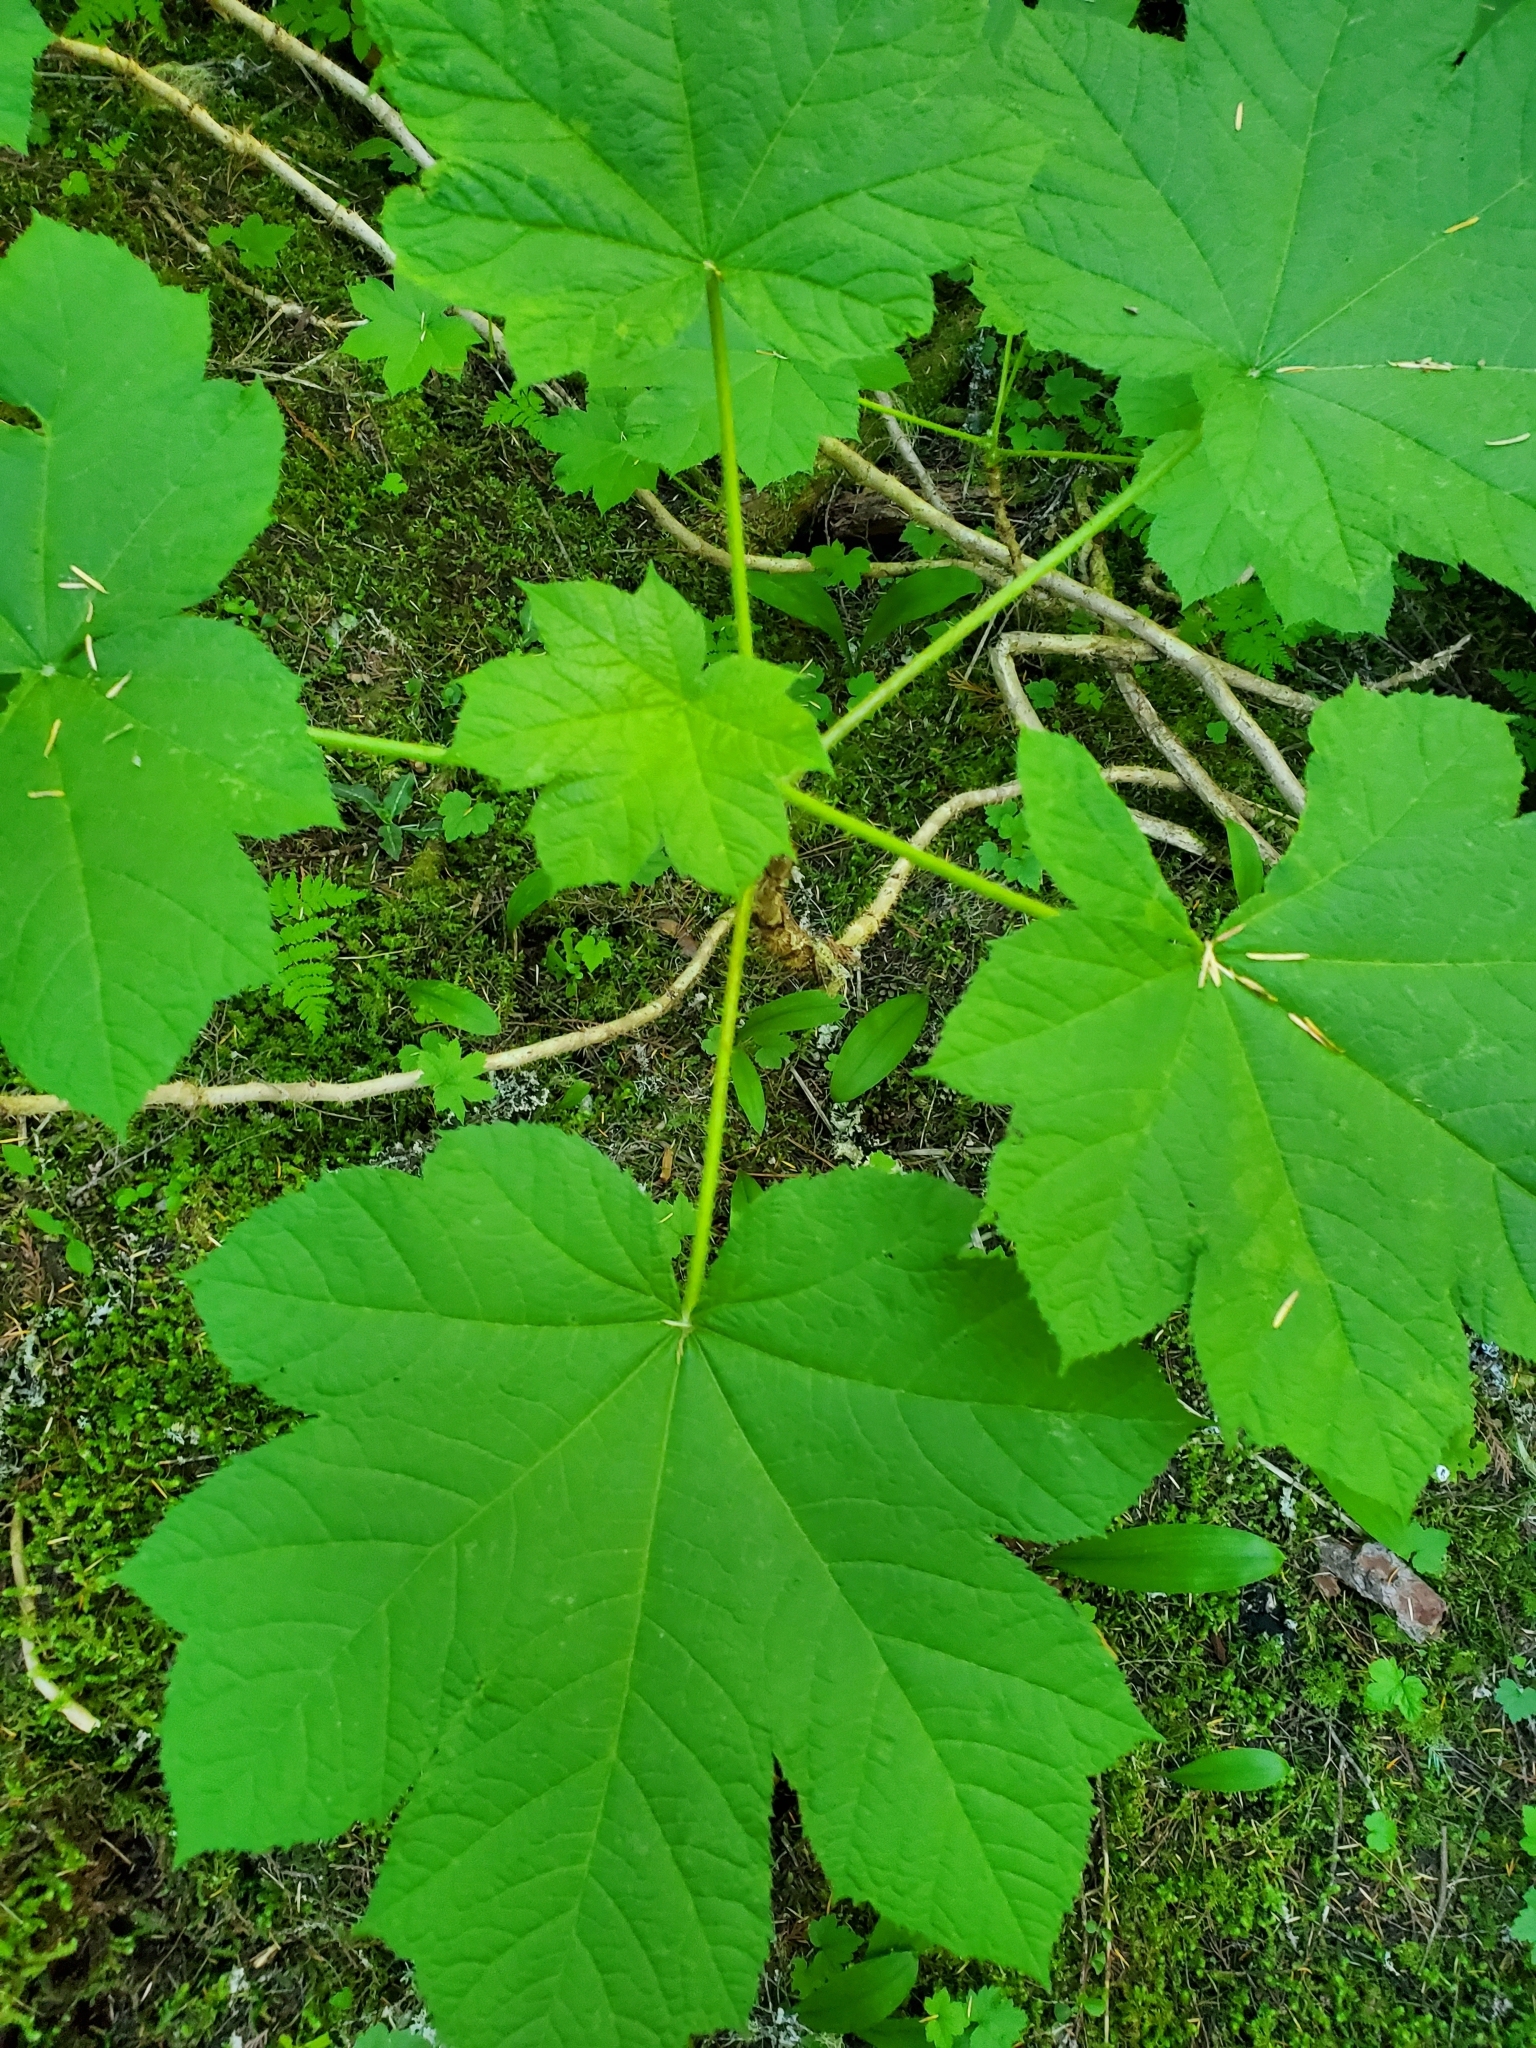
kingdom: Plantae
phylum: Tracheophyta
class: Magnoliopsida
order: Apiales
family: Araliaceae
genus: Oplopanax
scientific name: Oplopanax horridus
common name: Devil's walking-stick
